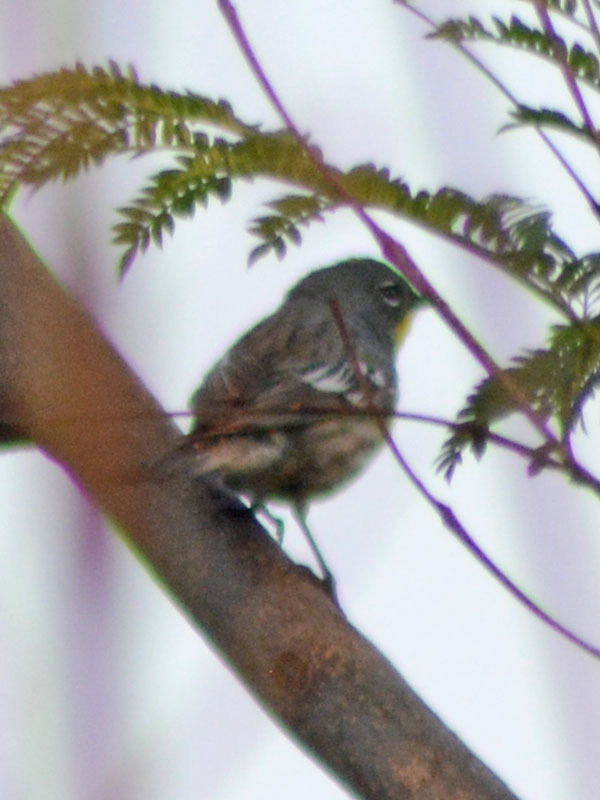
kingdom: Animalia
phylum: Chordata
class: Aves
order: Passeriformes
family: Parulidae
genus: Setophaga
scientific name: Setophaga auduboni
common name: Audubon's warbler
